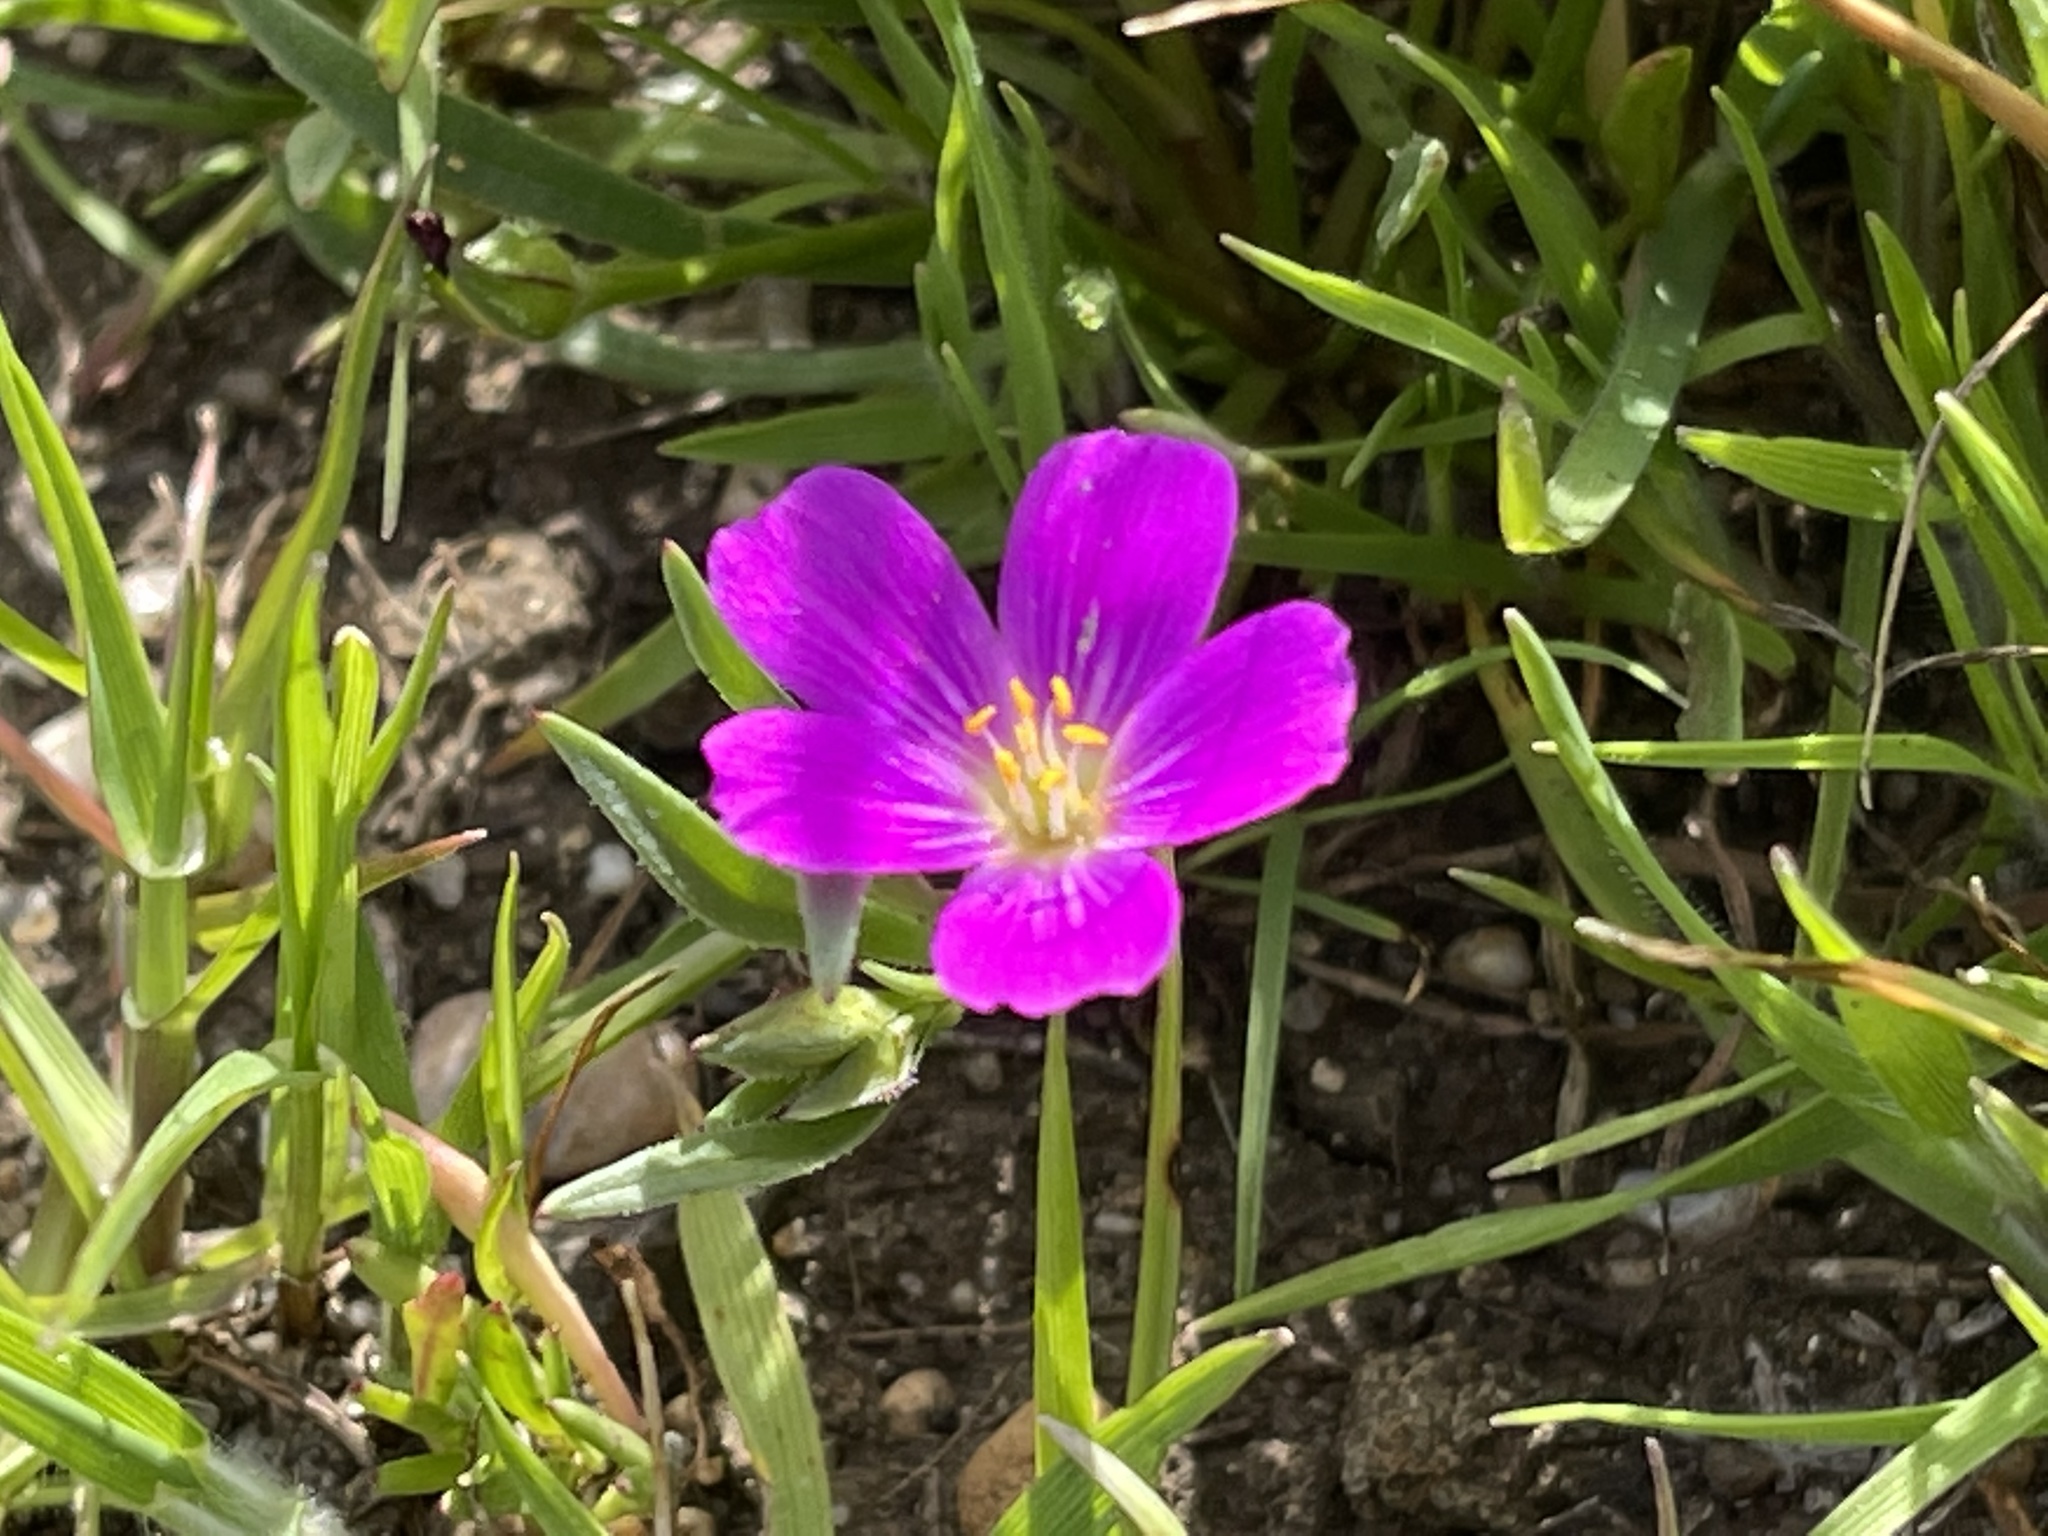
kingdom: Plantae
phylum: Tracheophyta
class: Magnoliopsida
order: Caryophyllales
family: Montiaceae
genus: Calandrinia
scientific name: Calandrinia menziesii
